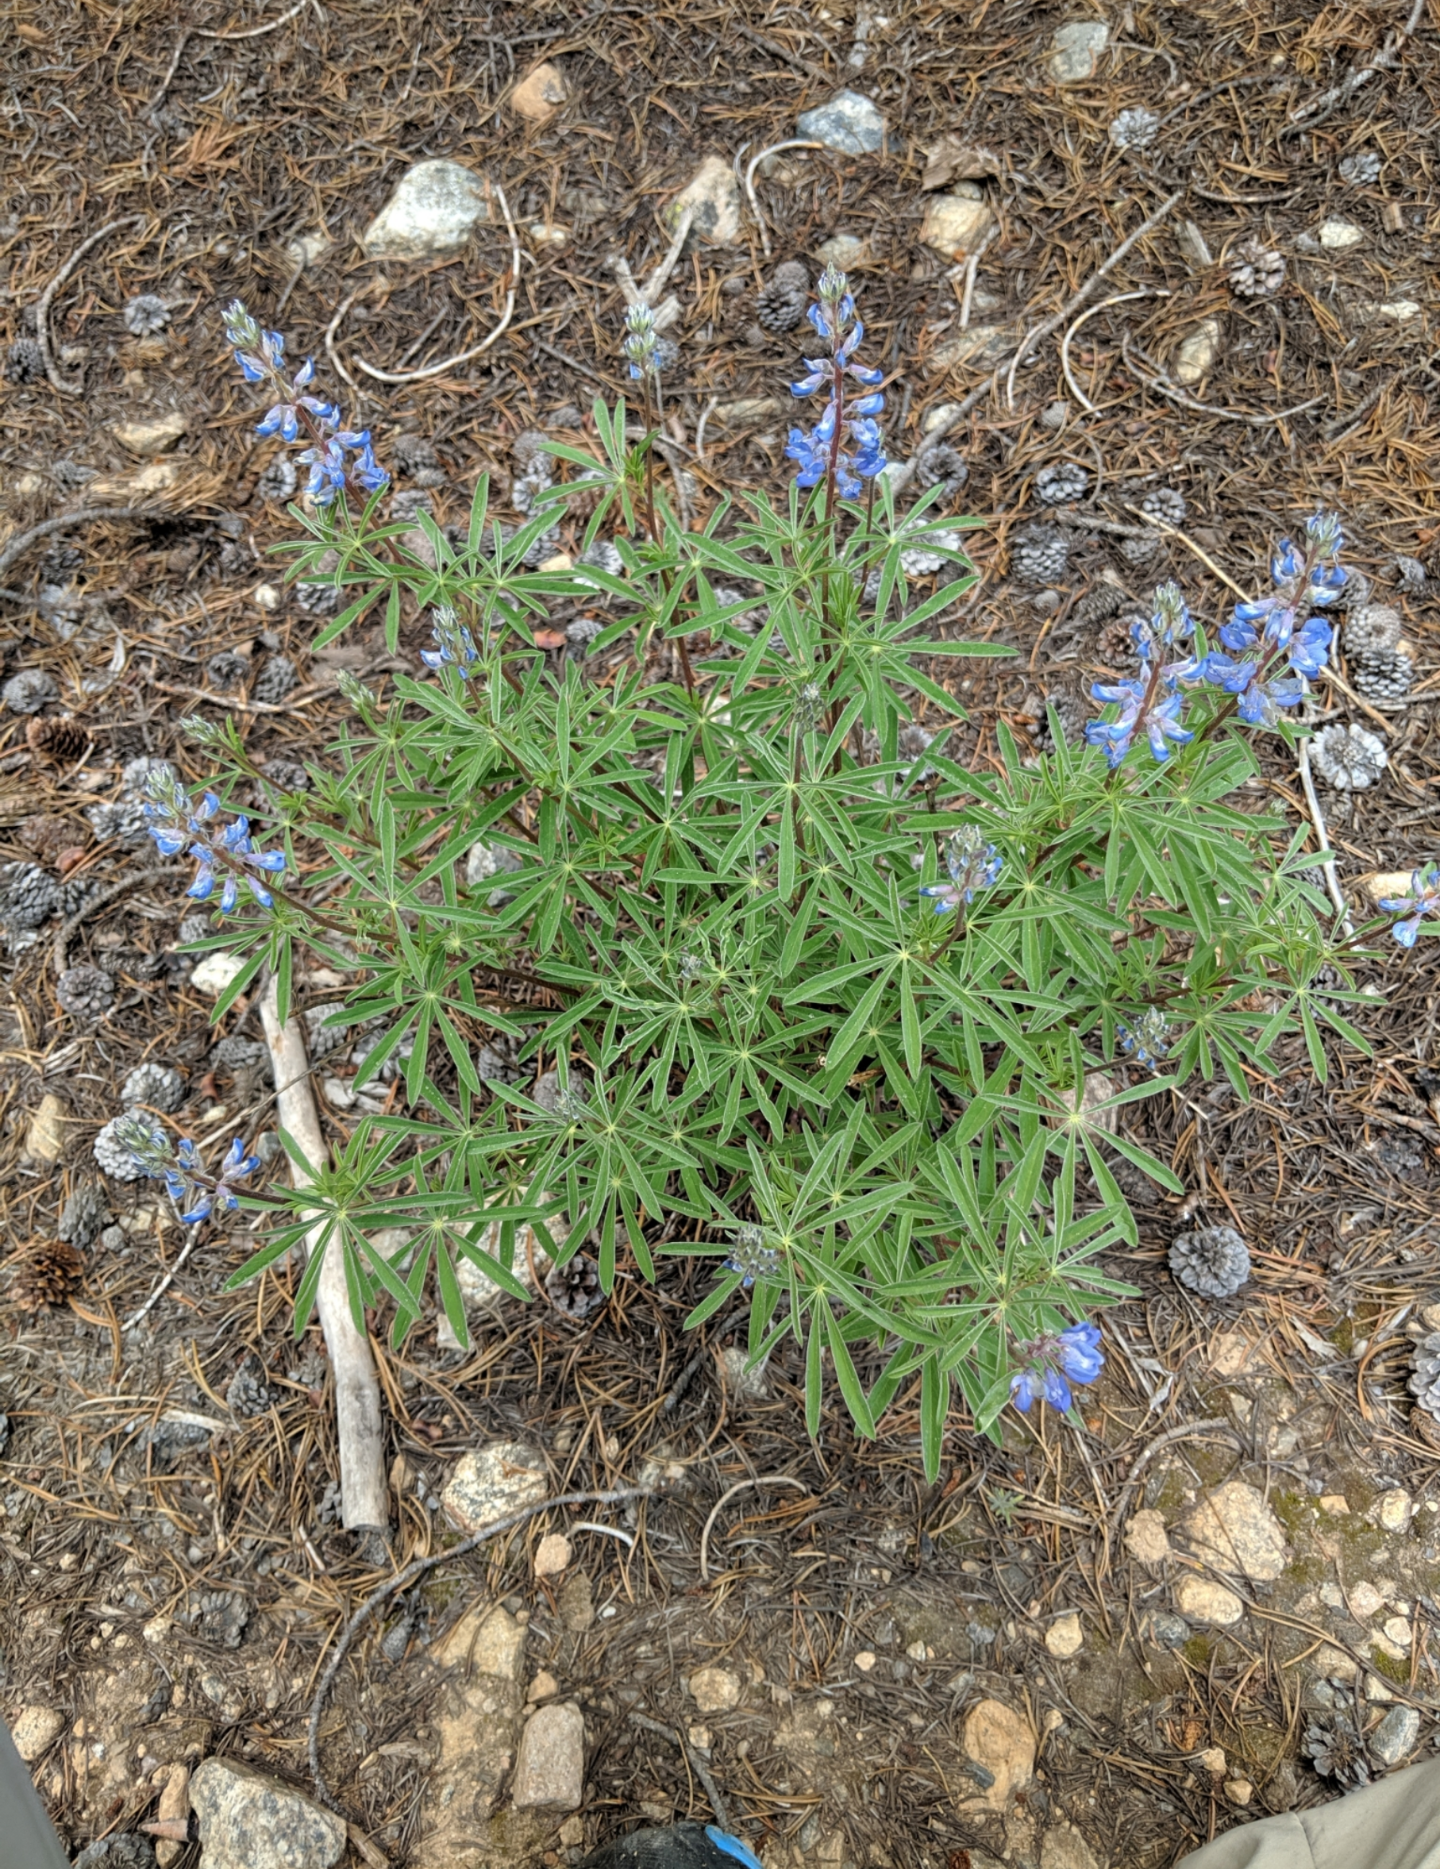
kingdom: Plantae
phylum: Tracheophyta
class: Magnoliopsida
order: Fabales
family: Fabaceae
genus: Lupinus
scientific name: Lupinus argenteus
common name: Silvery lupine
